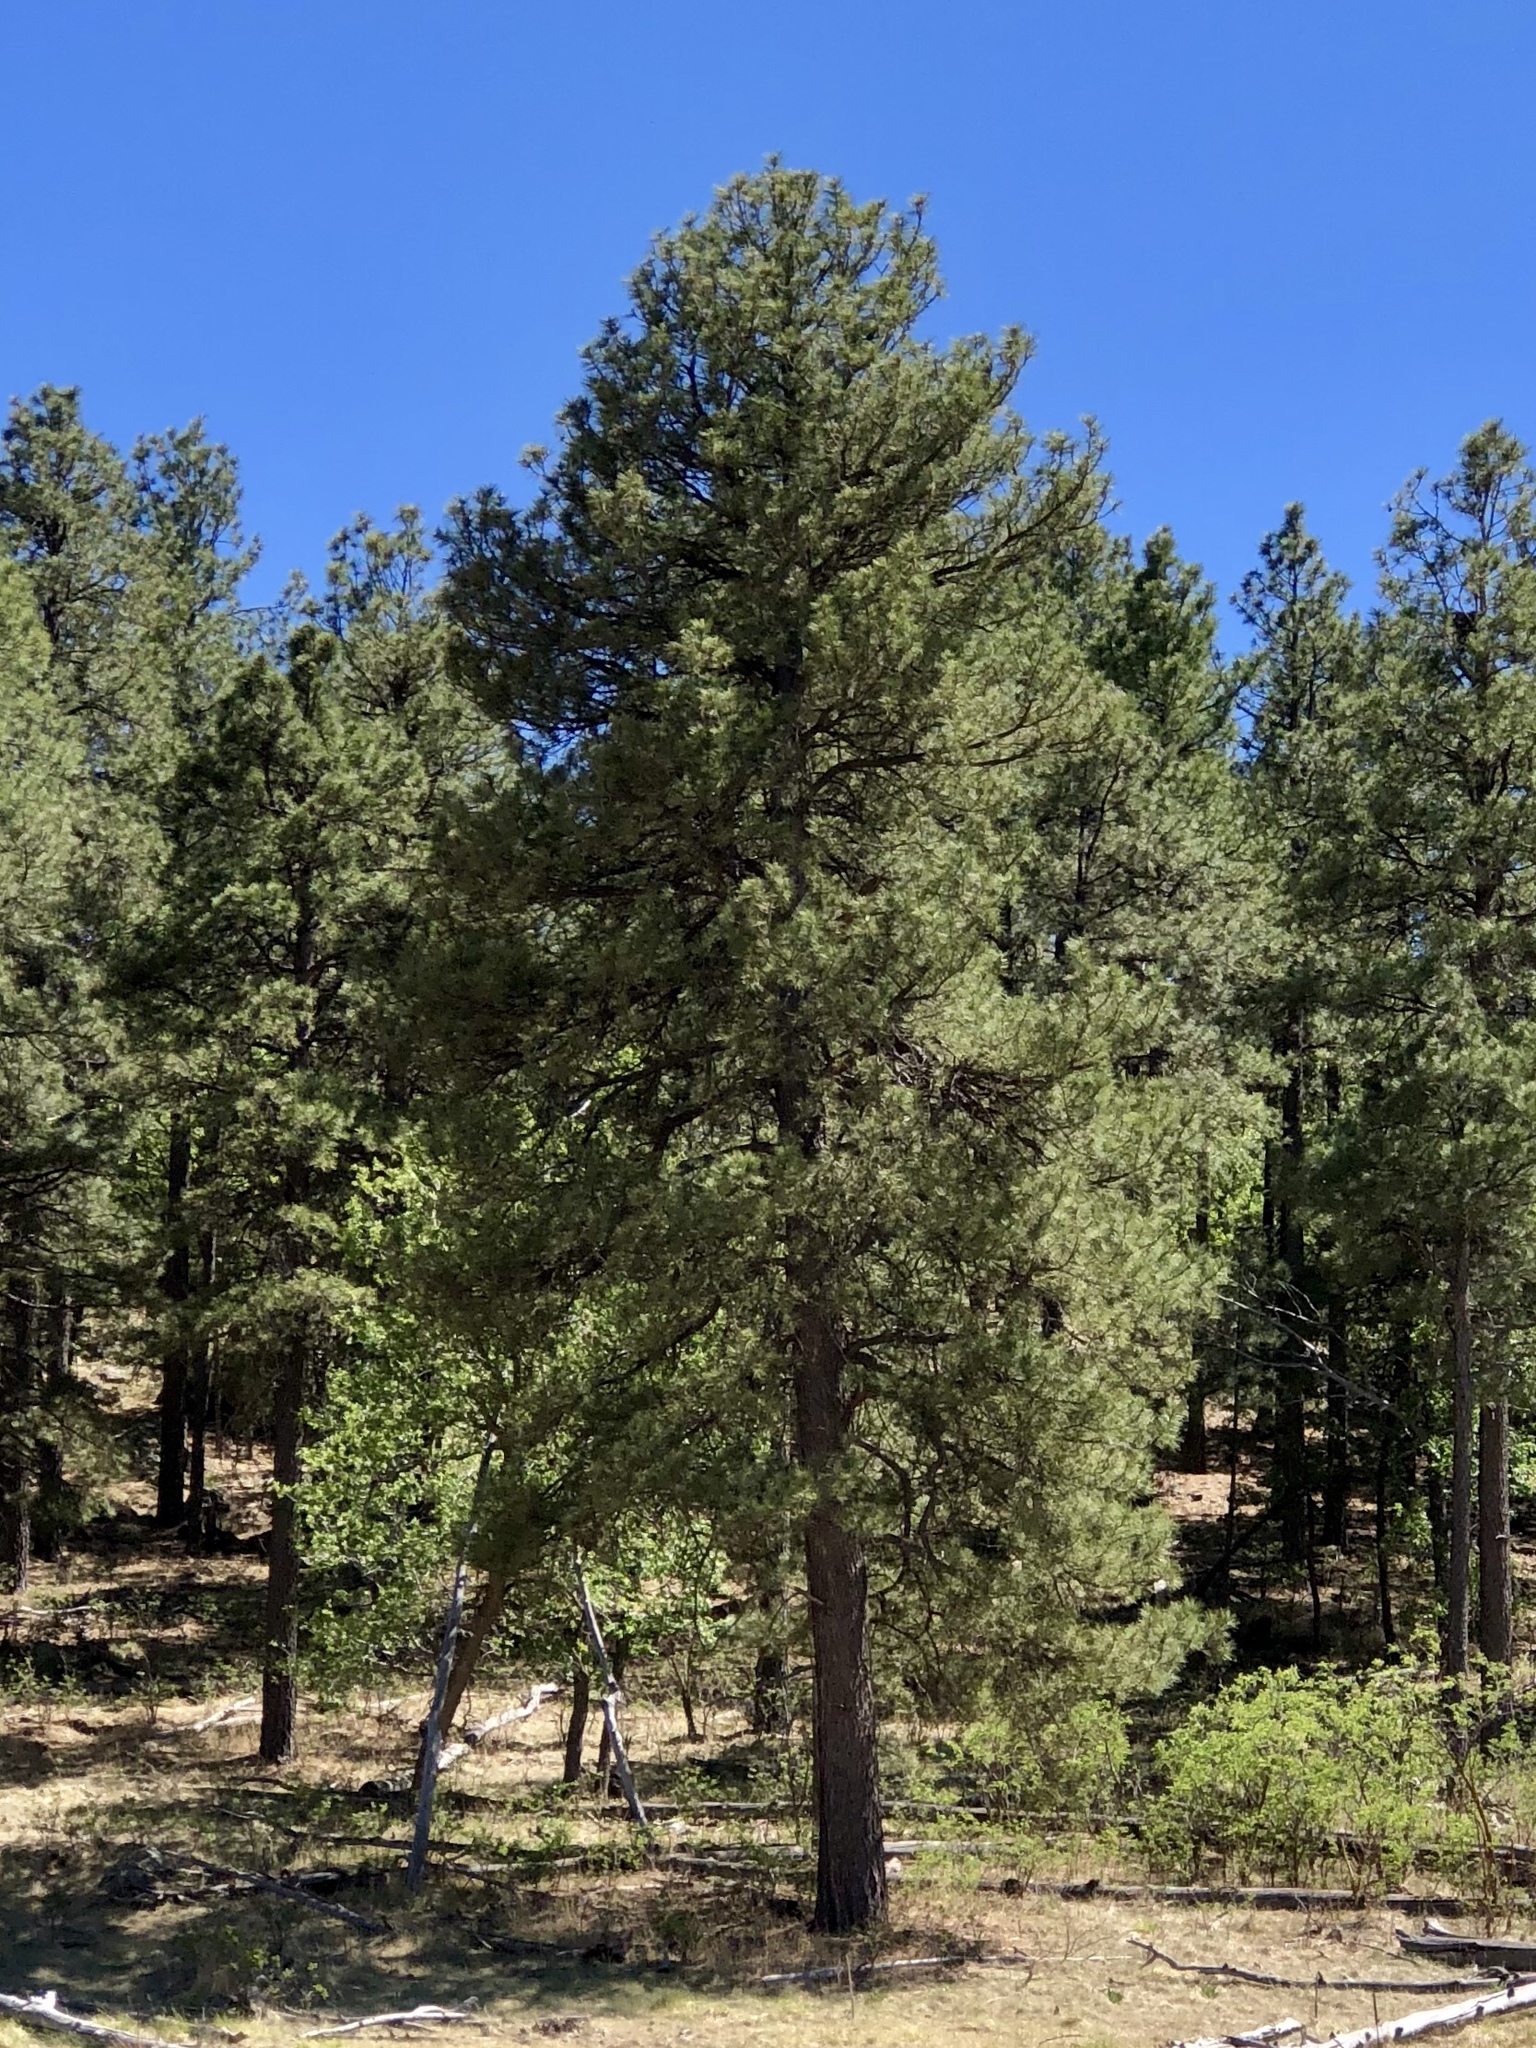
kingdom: Plantae
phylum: Tracheophyta
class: Pinopsida
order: Pinales
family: Pinaceae
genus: Pinus
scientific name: Pinus ponderosa
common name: Western yellow-pine
